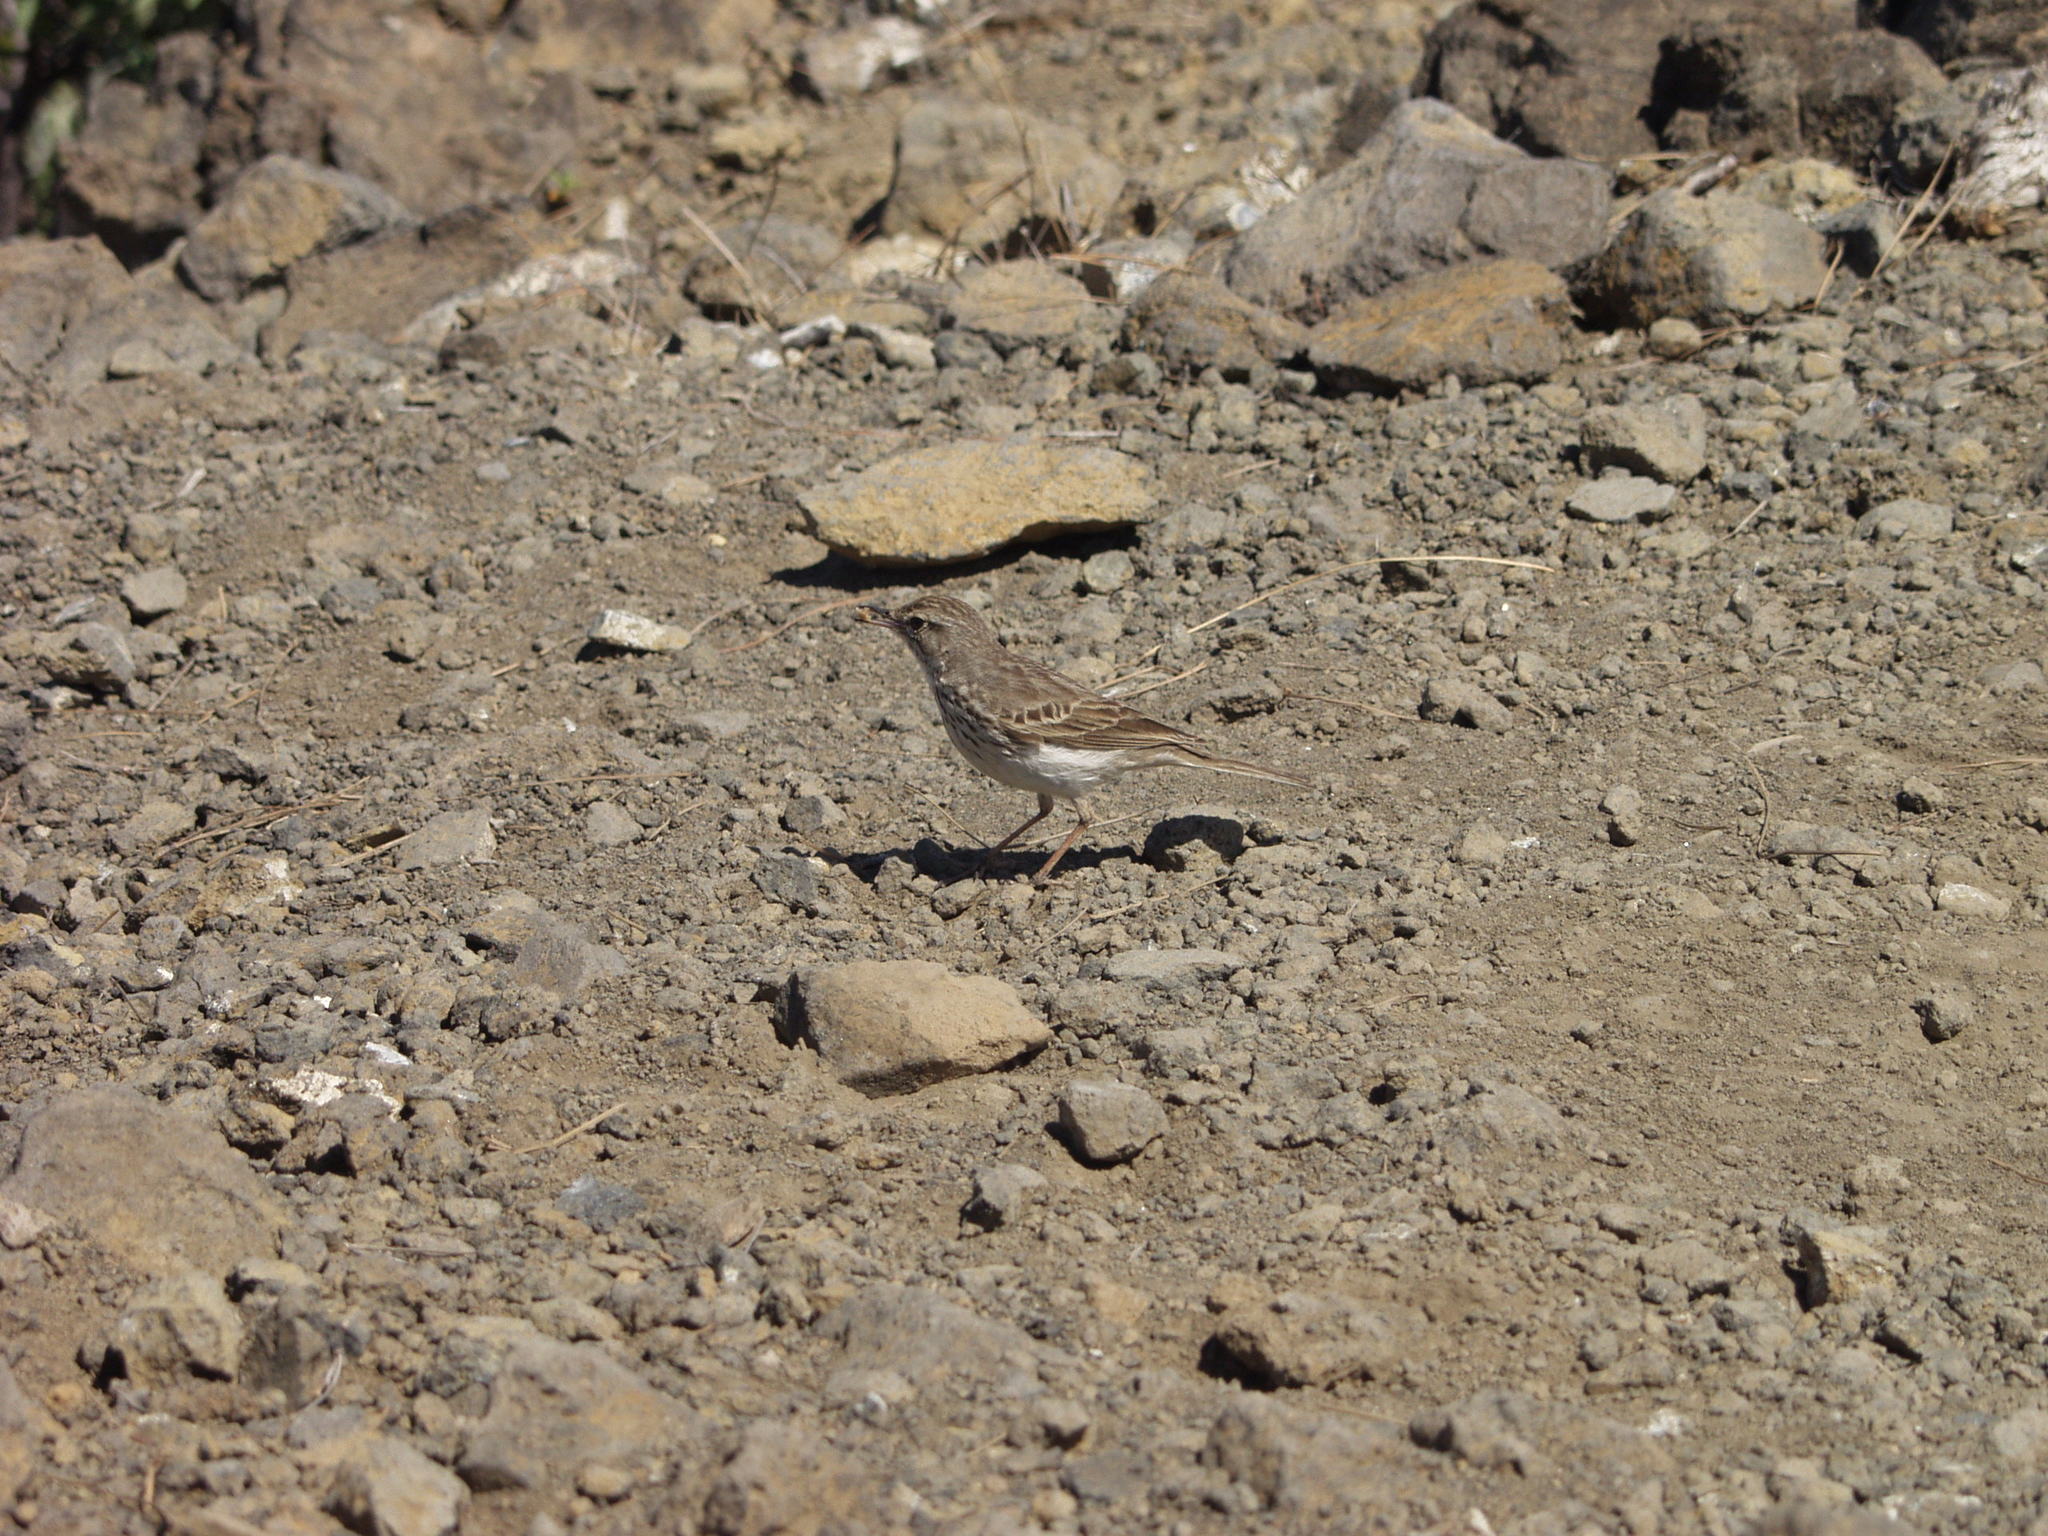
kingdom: Animalia
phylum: Chordata
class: Aves
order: Passeriformes
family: Motacillidae
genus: Anthus
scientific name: Anthus berthelotii
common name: Berthelot's pipit
